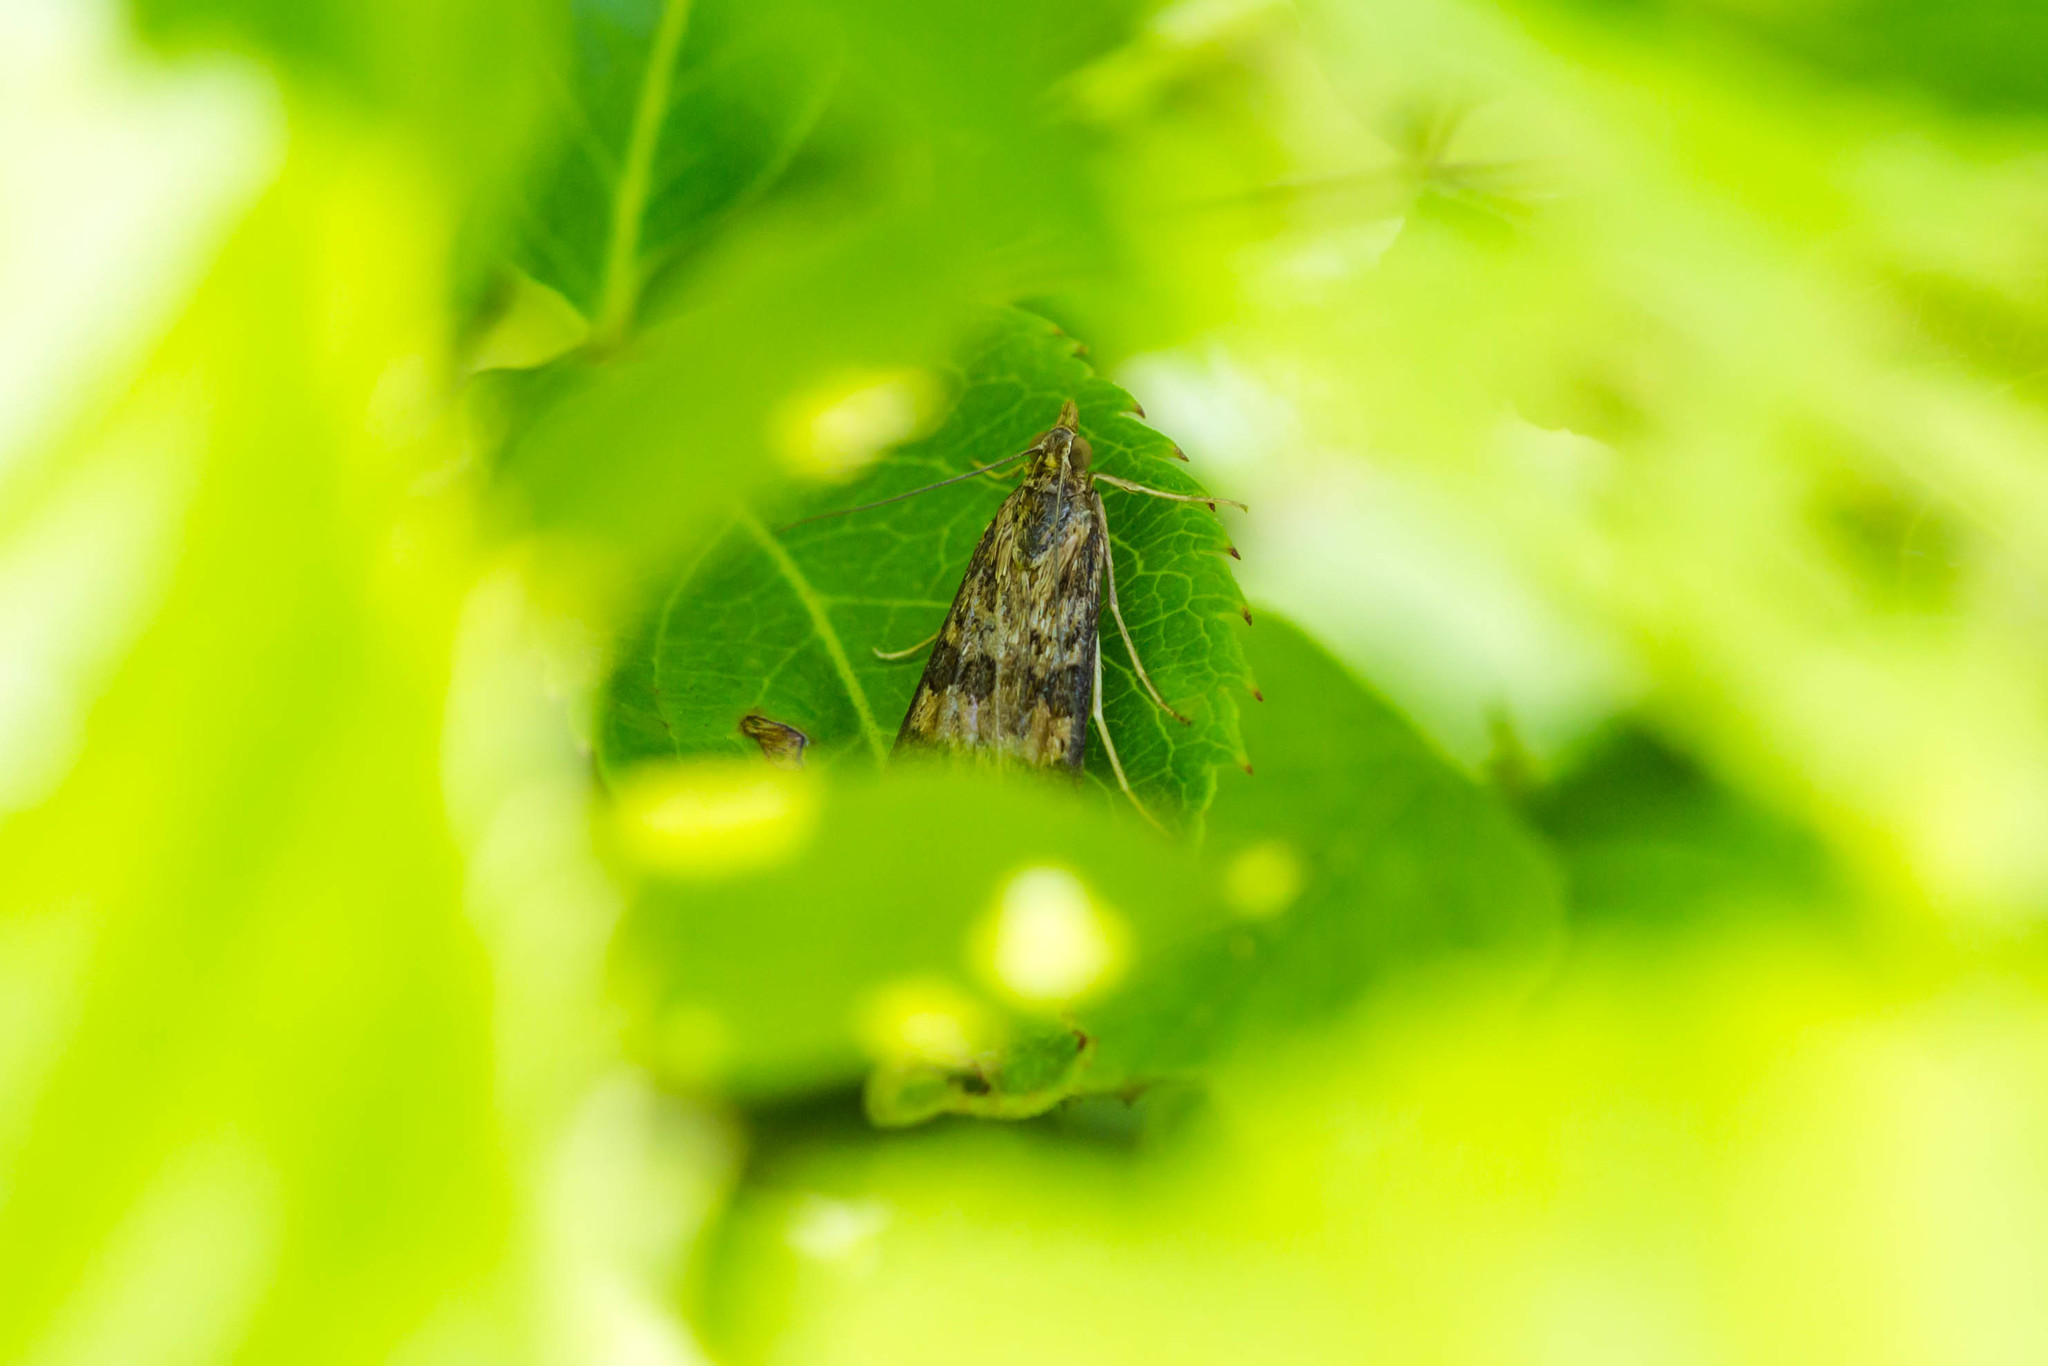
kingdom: Animalia
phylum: Arthropoda
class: Insecta
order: Lepidoptera
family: Crambidae
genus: Nomophila
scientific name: Nomophila nearctica
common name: American rush veneer
